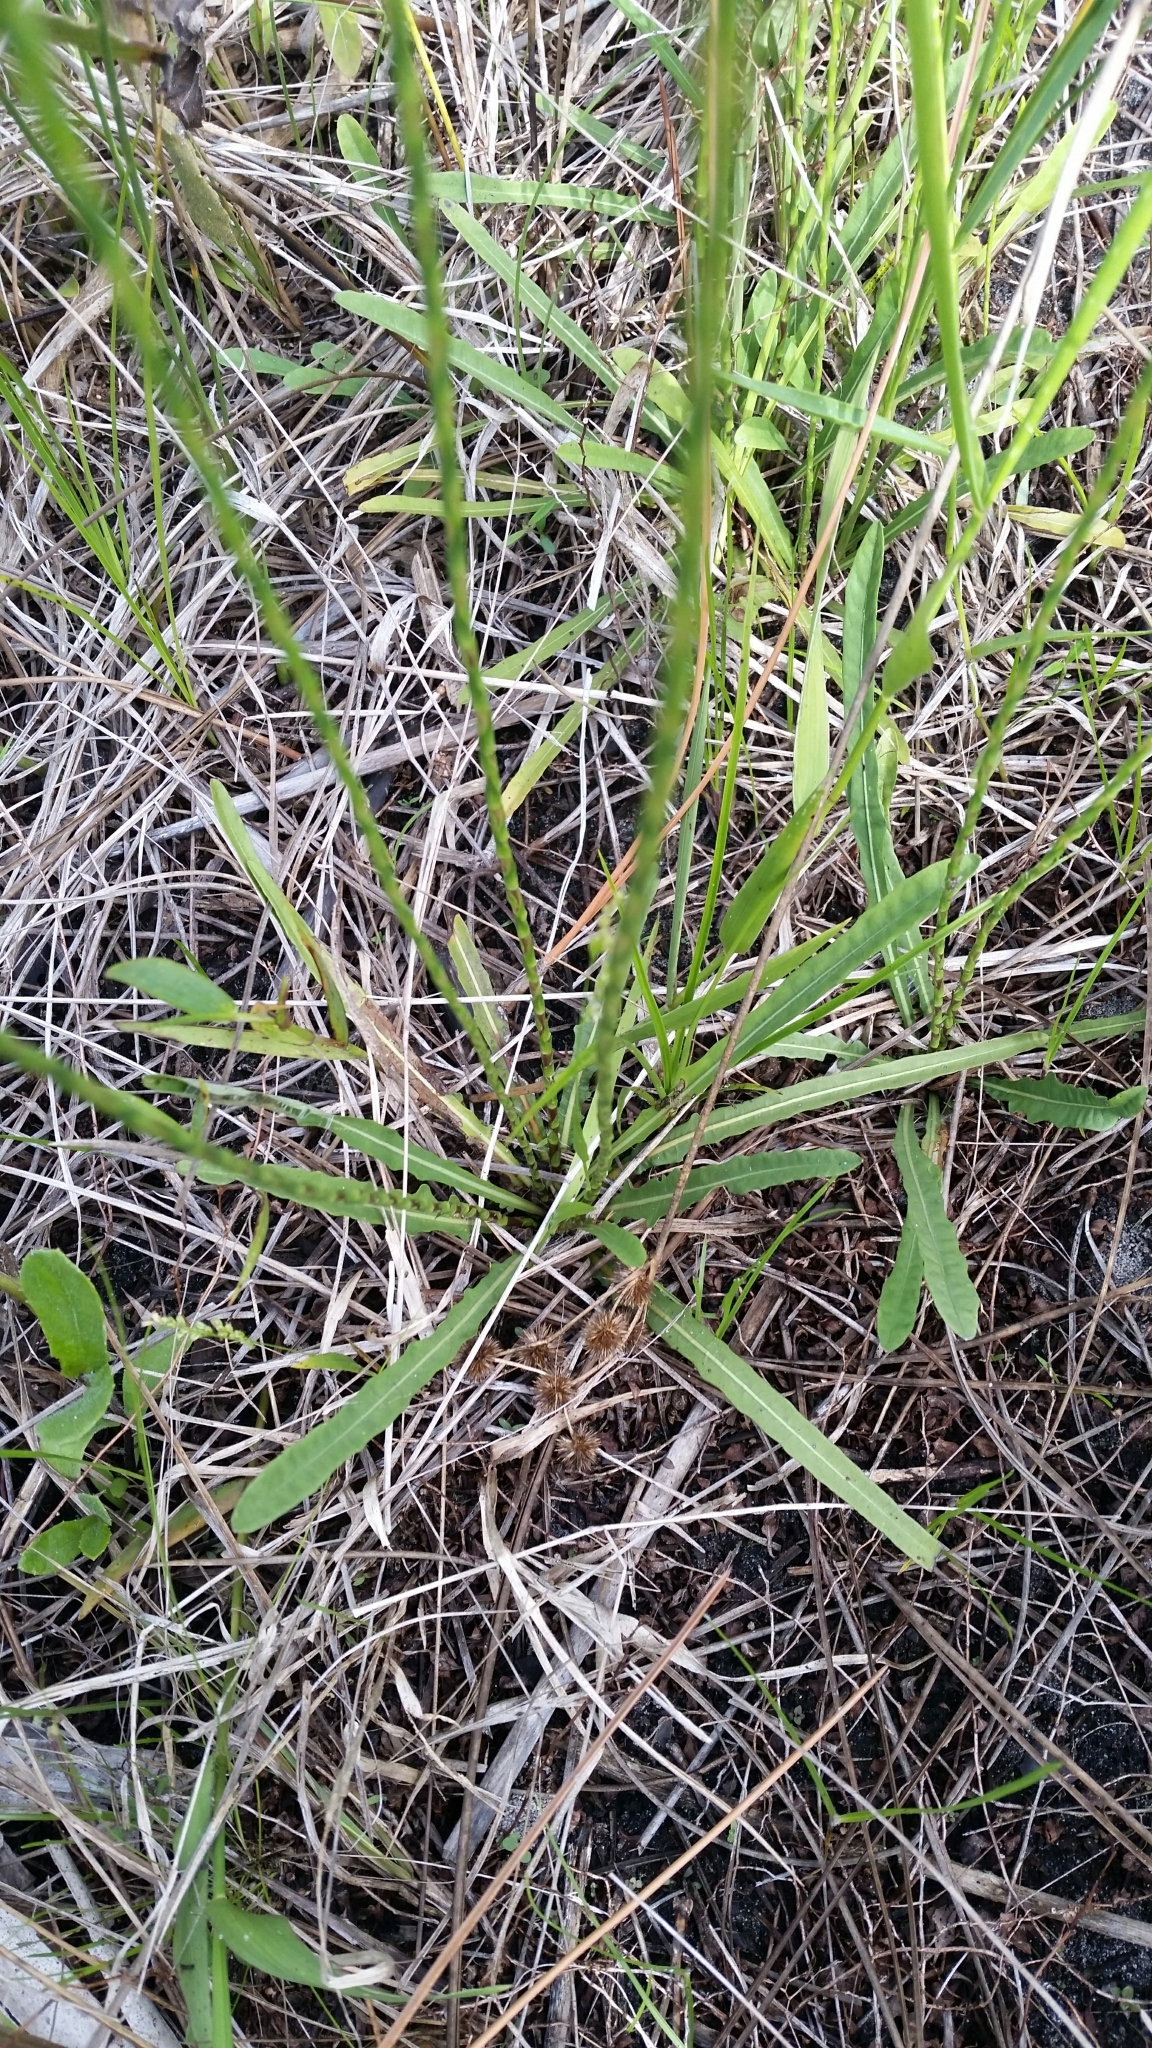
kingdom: Plantae
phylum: Tracheophyta
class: Magnoliopsida
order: Lamiales
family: Acanthaceae
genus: Elytraria
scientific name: Elytraria caroliniensis
